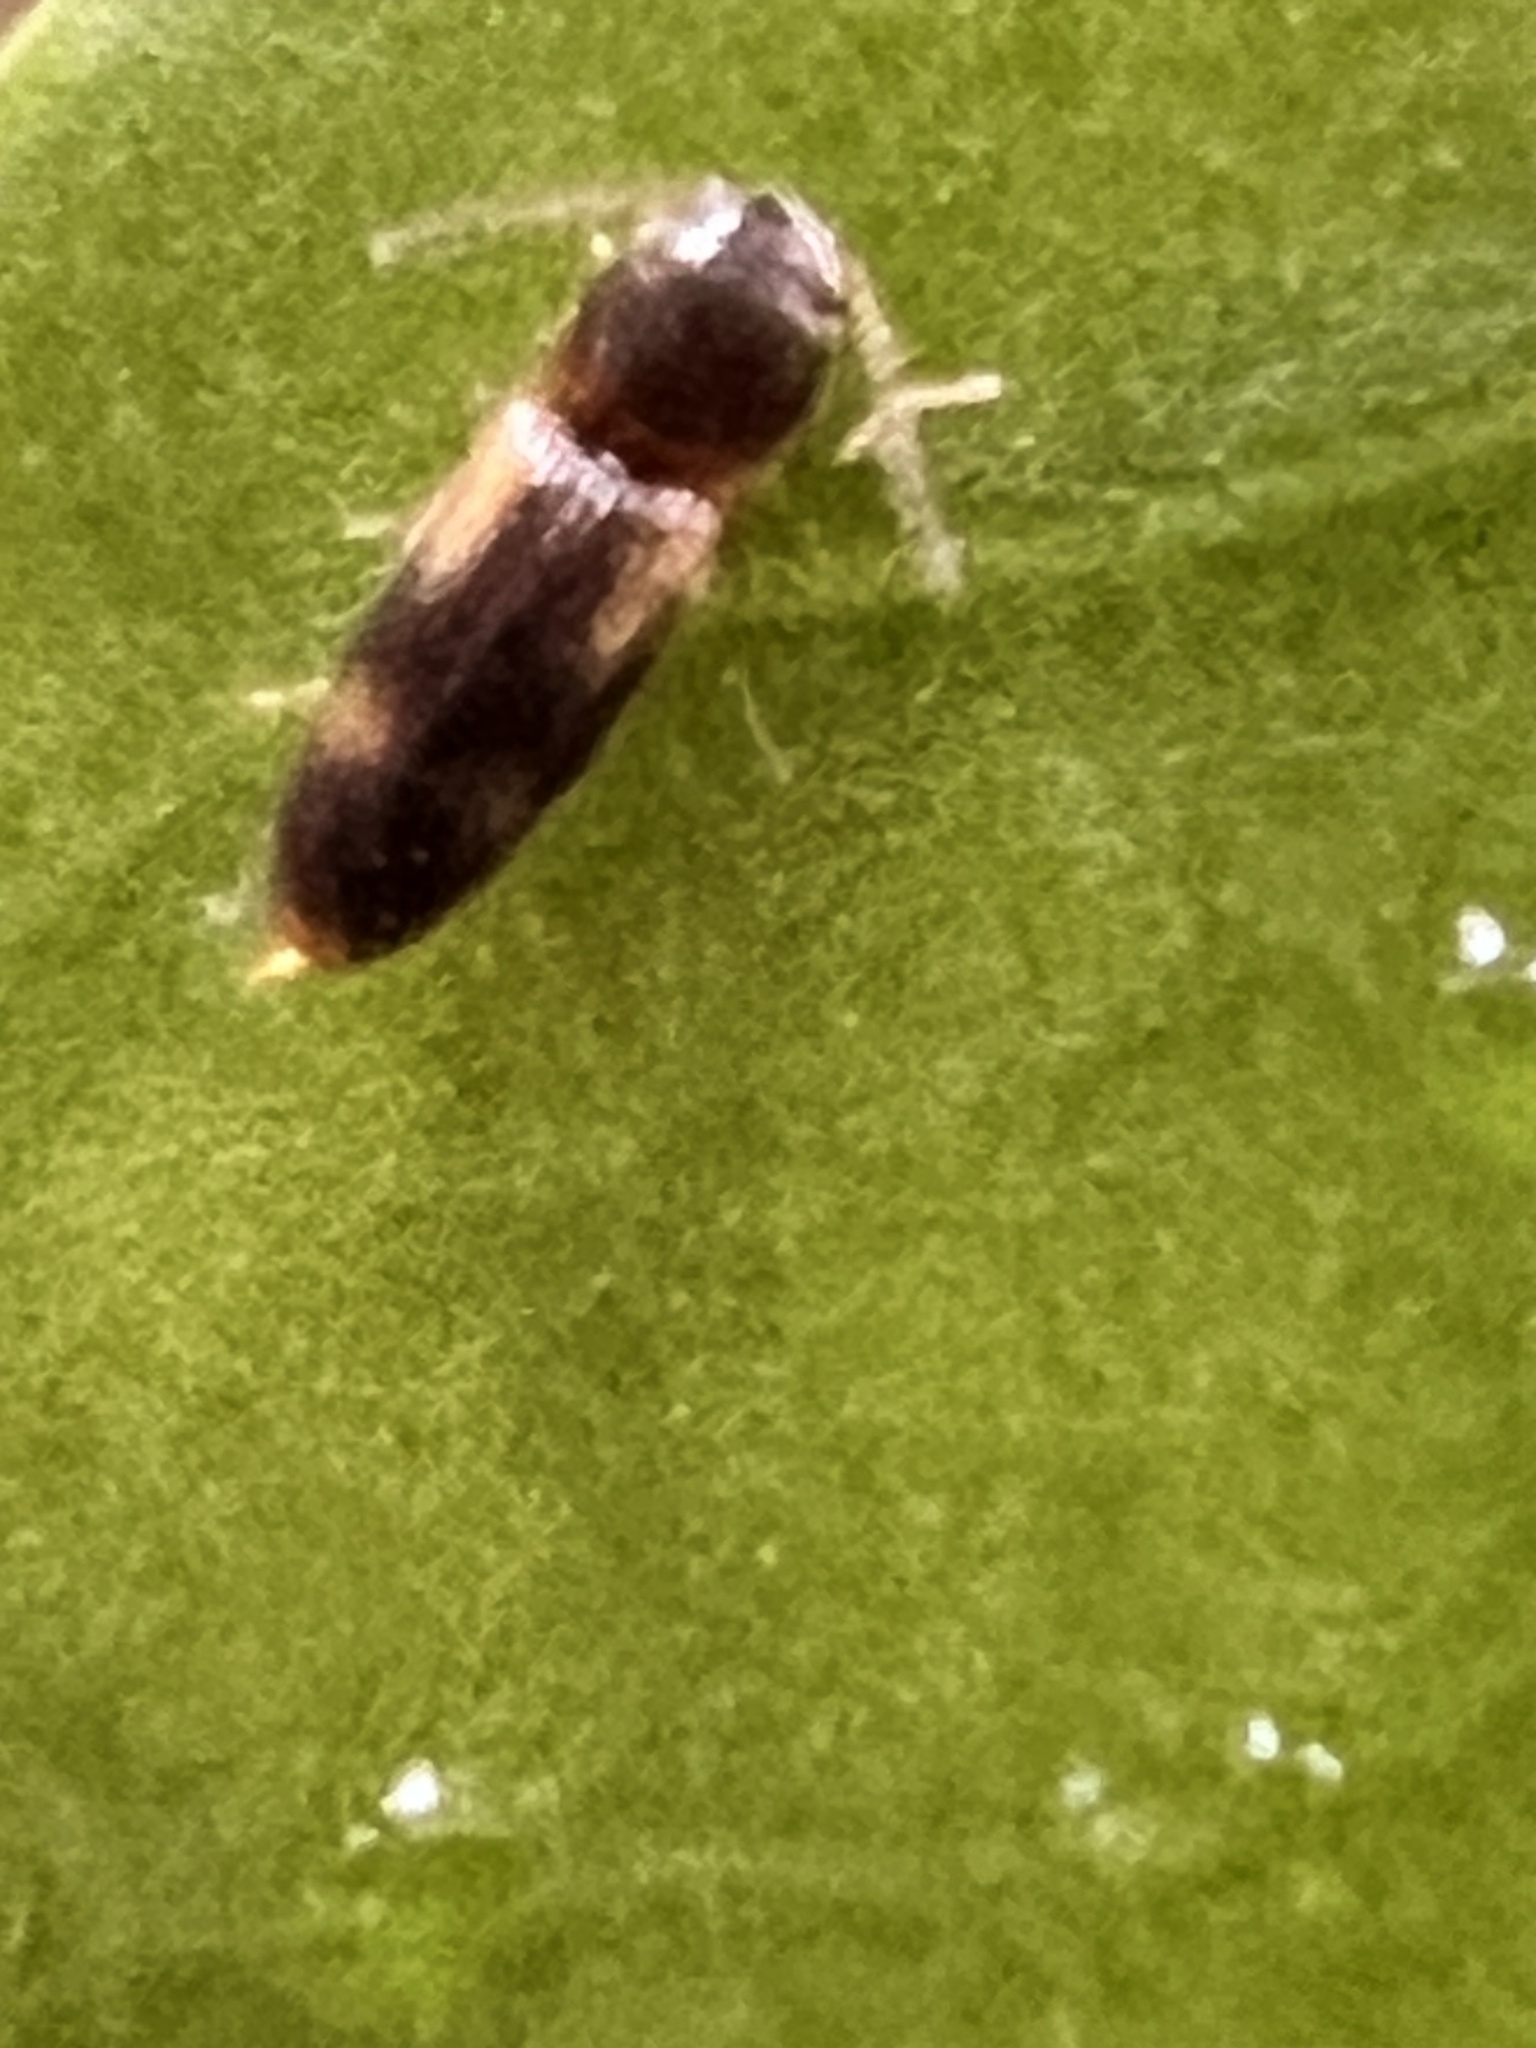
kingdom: Animalia
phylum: Arthropoda
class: Insecta
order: Coleoptera
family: Elateridae
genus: Panspaeus
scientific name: Panspaeus guttatus
